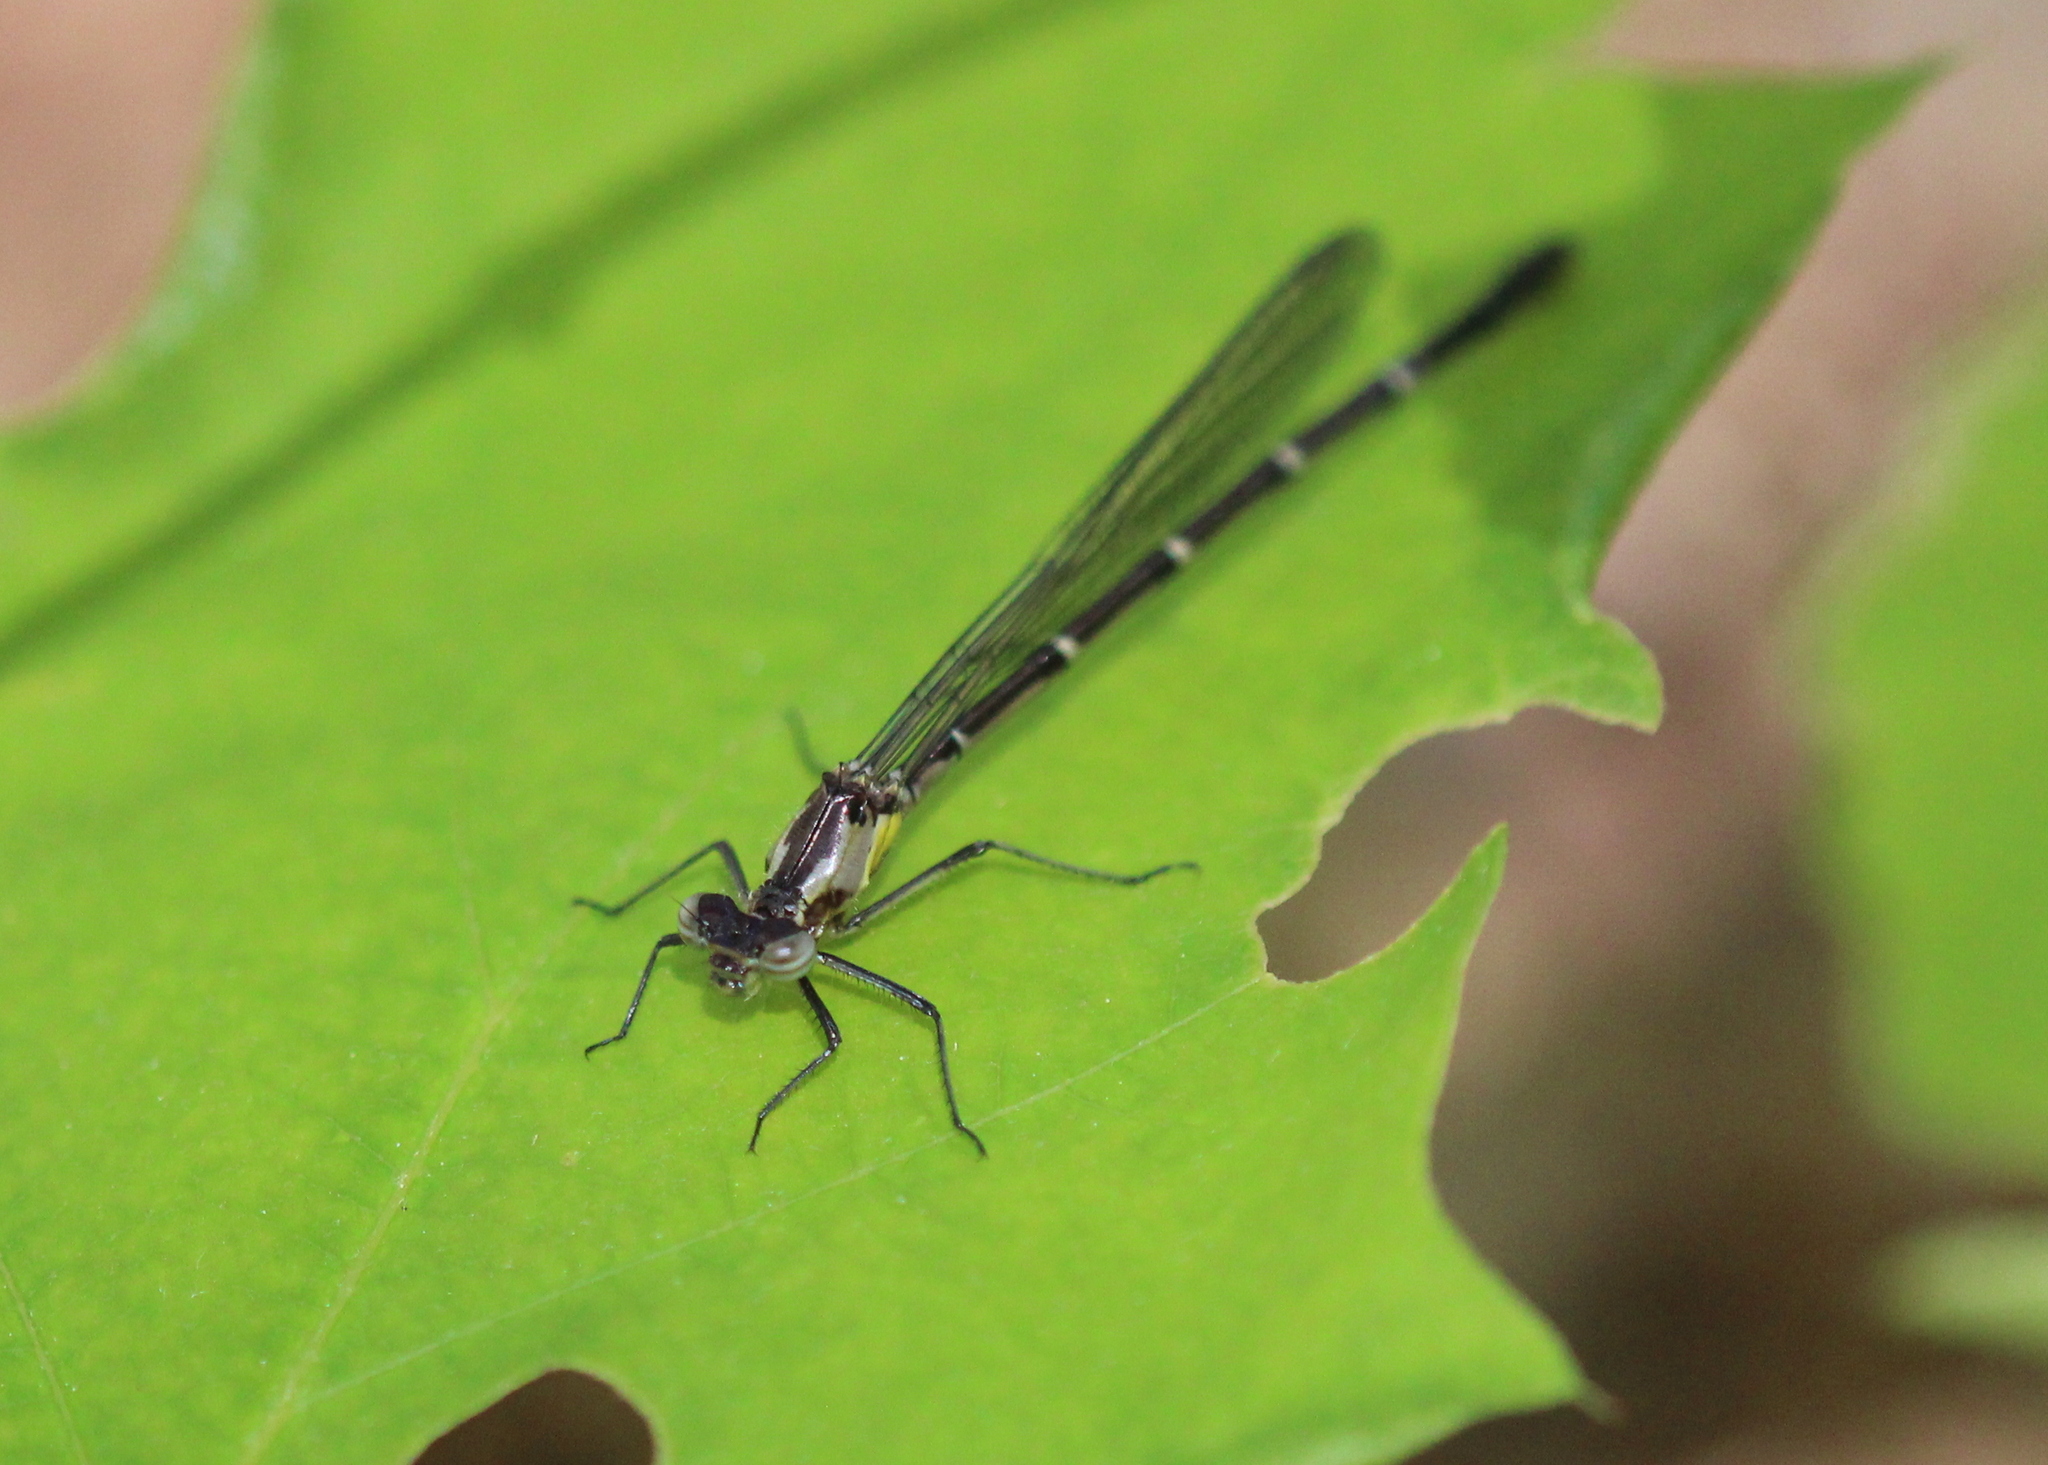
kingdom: Animalia
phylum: Arthropoda
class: Insecta
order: Odonata
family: Coenagrionidae
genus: Chromagrion
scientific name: Chromagrion conditum
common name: Aurora damsel
